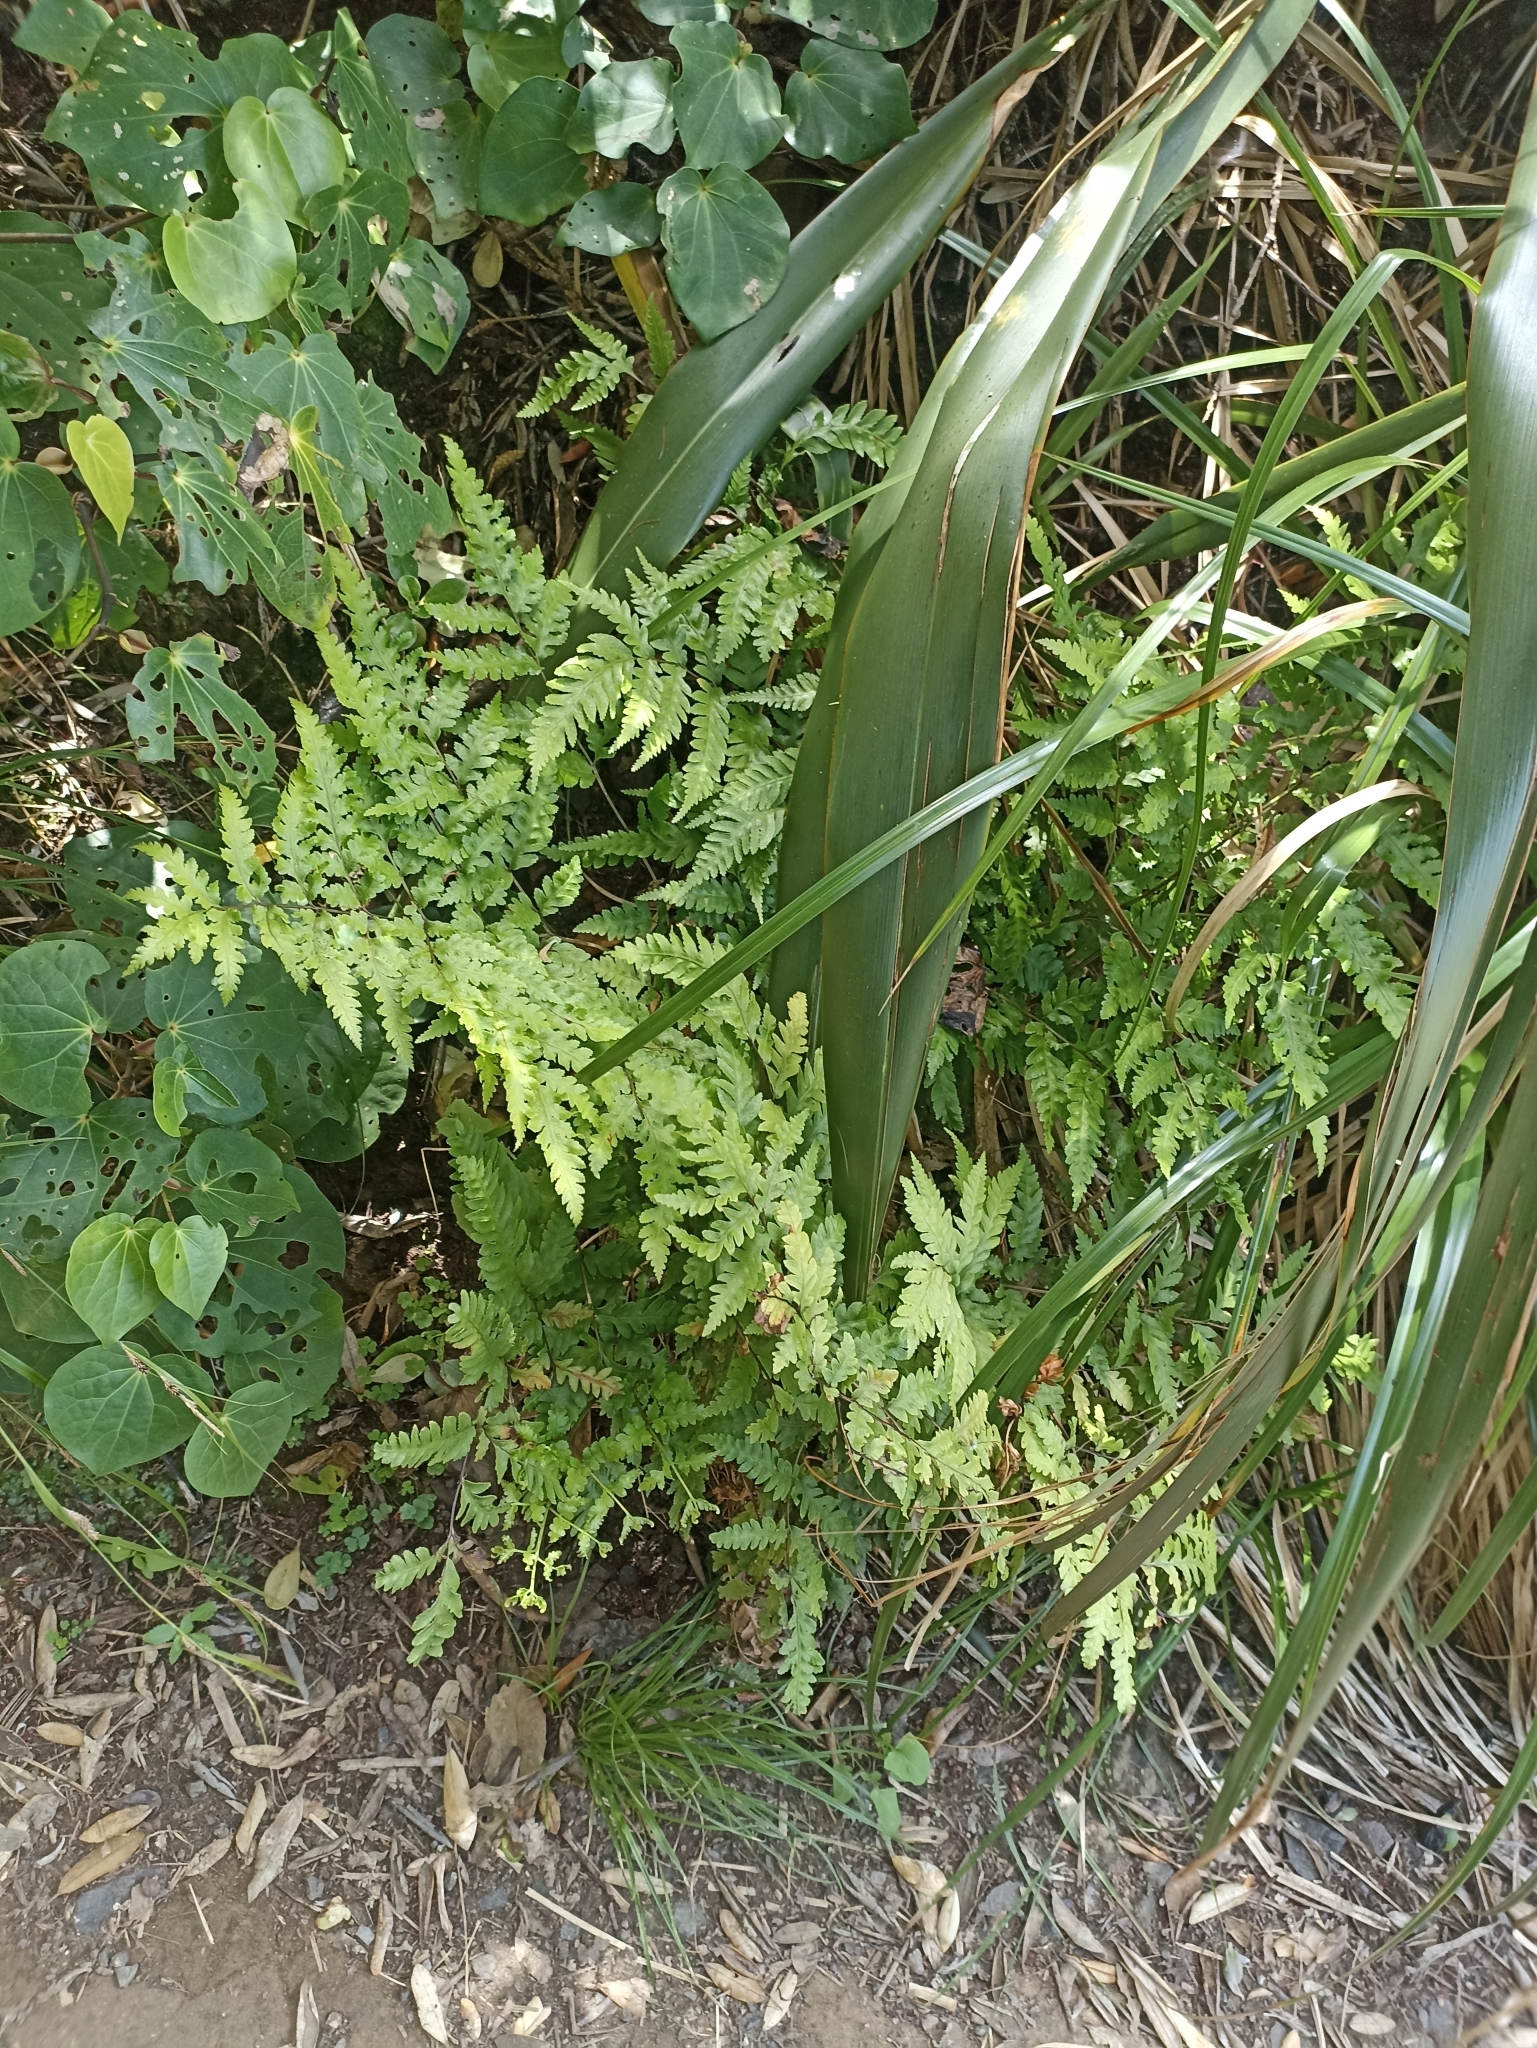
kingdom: Plantae
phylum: Tracheophyta
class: Polypodiopsida
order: Polypodiales
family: Pteridaceae
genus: Pteris
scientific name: Pteris carsei
